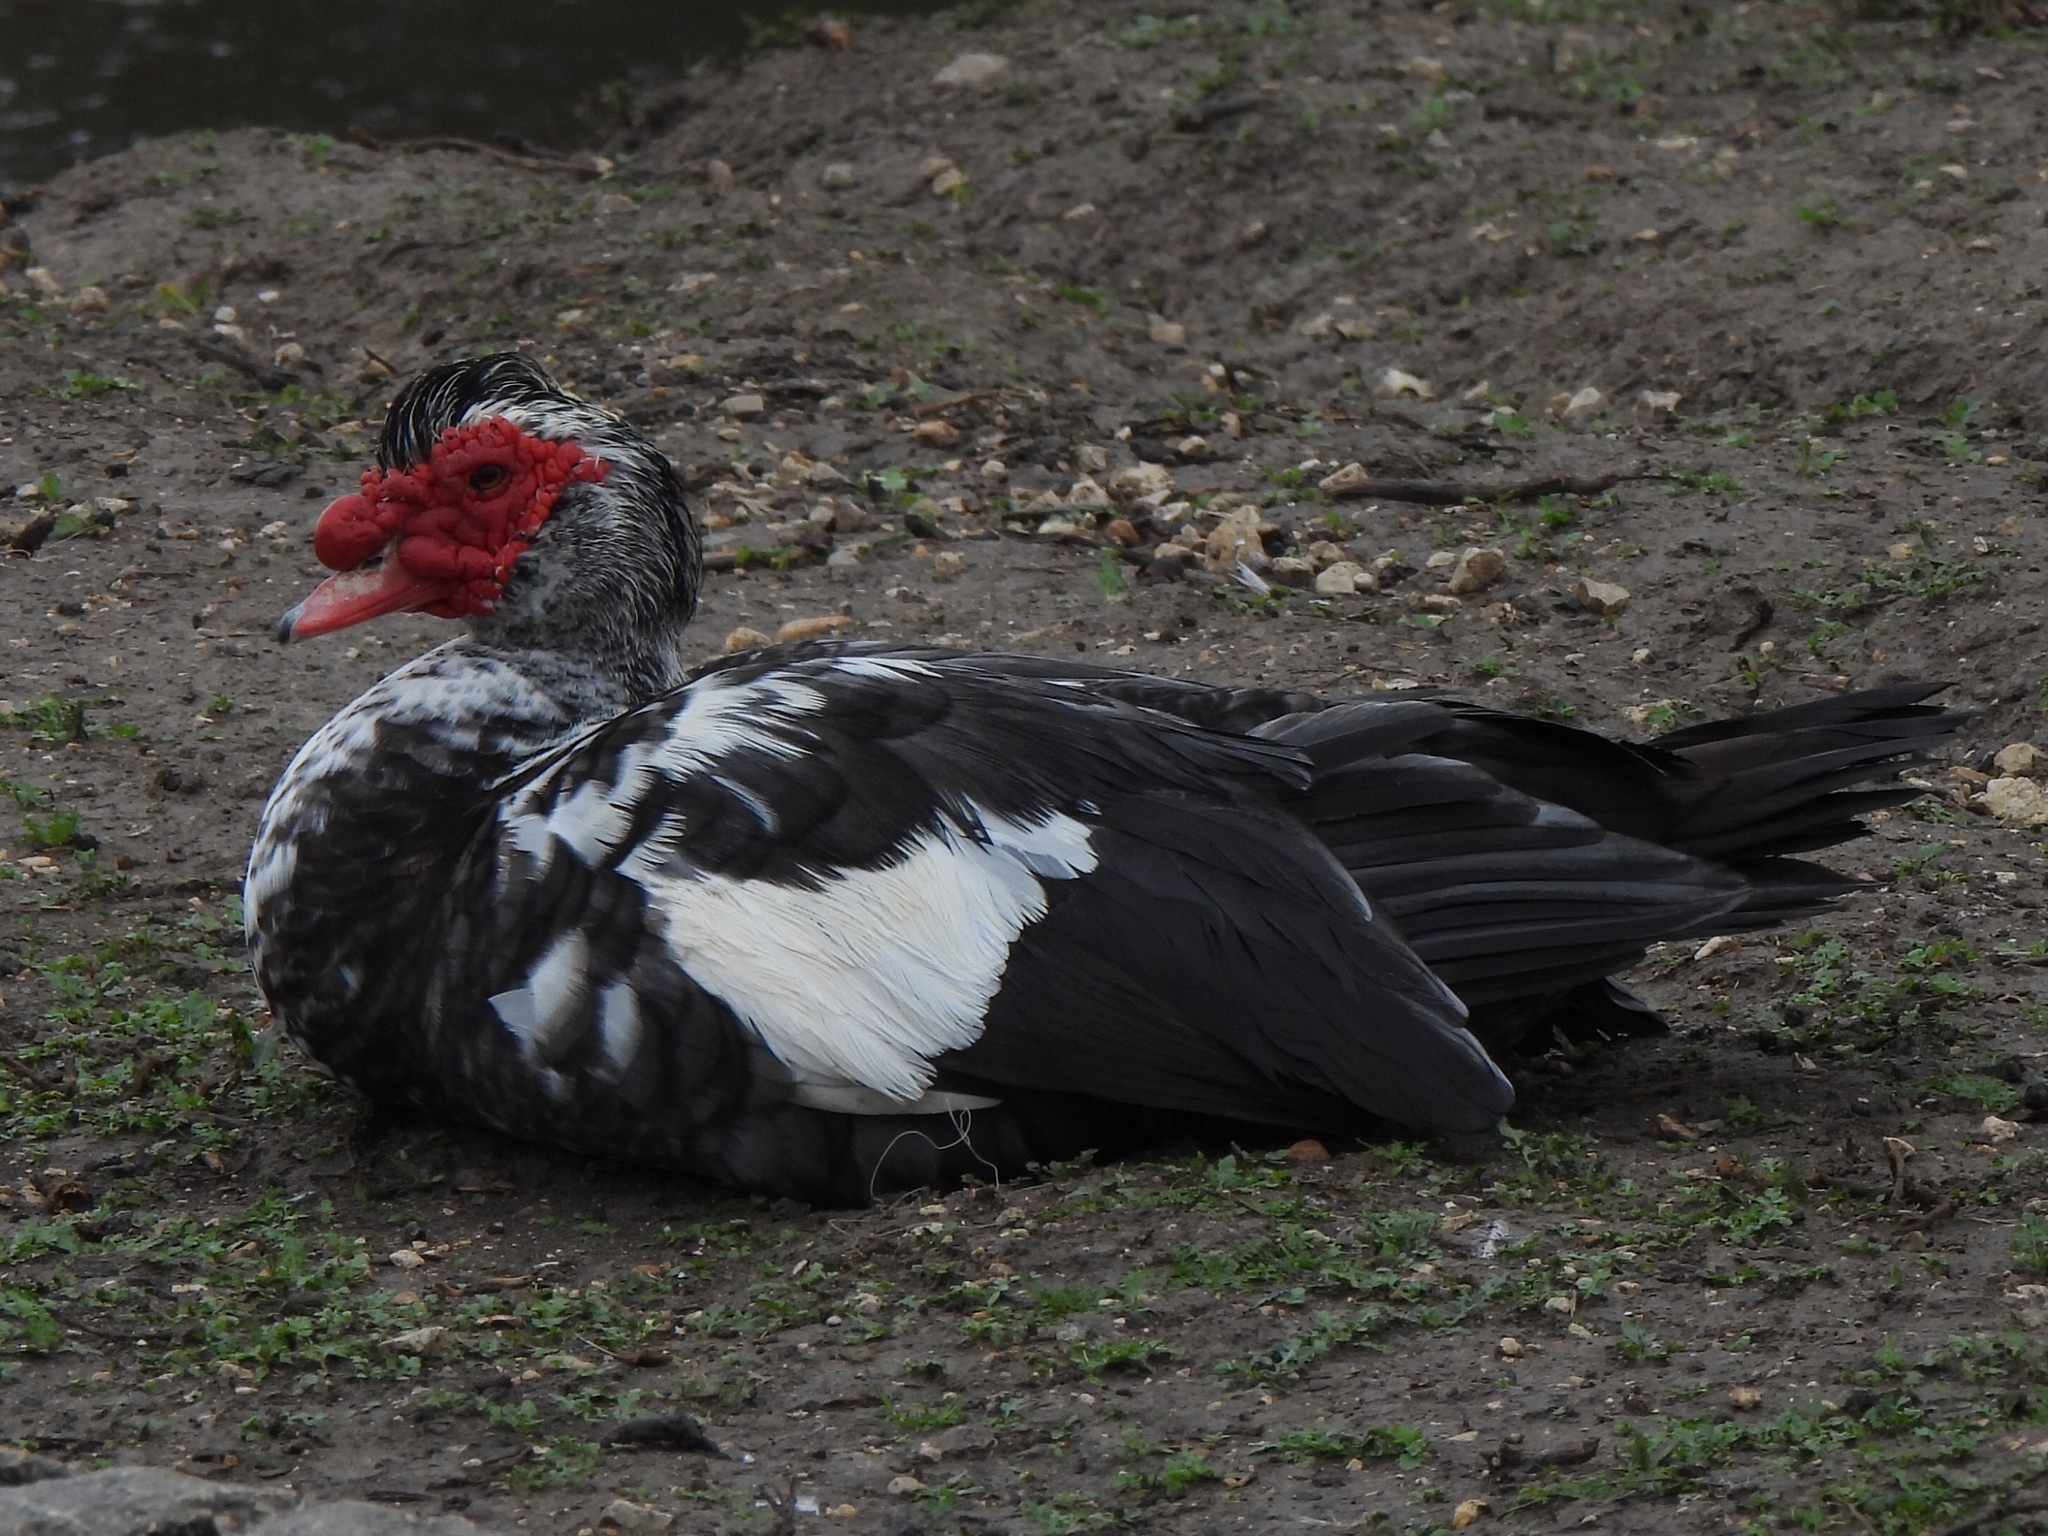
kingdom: Animalia
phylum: Chordata
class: Aves
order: Anseriformes
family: Anatidae
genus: Cairina
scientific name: Cairina moschata
